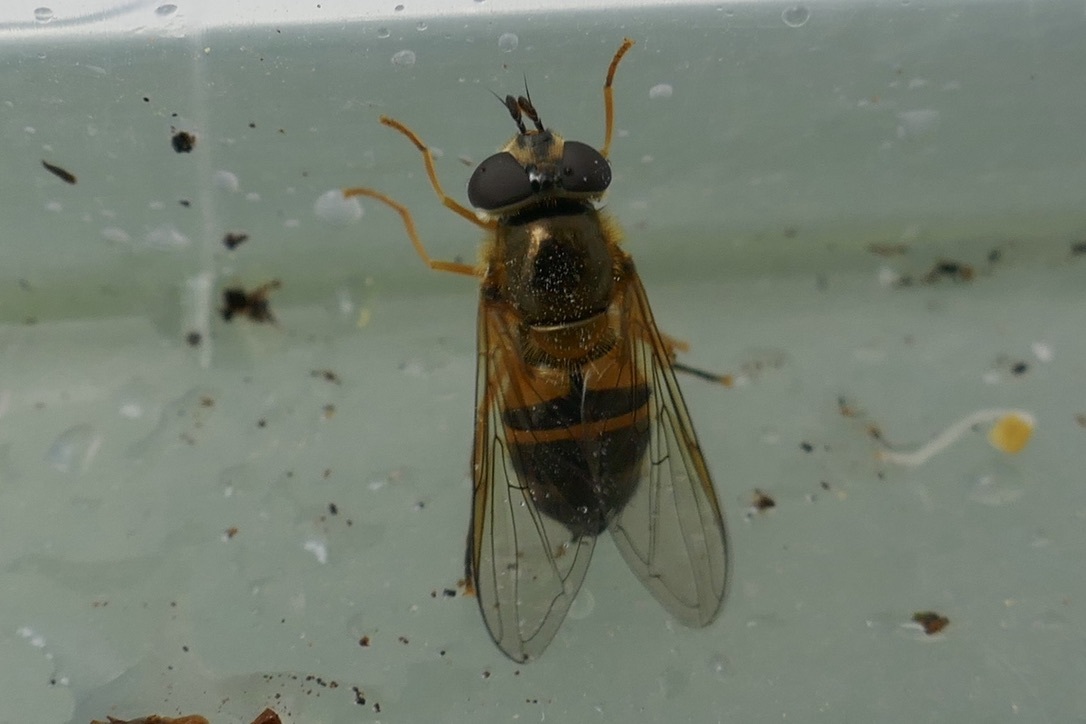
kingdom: Animalia
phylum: Arthropoda
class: Insecta
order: Diptera
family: Syrphidae
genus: Epistrophe
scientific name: Epistrophe eligans
